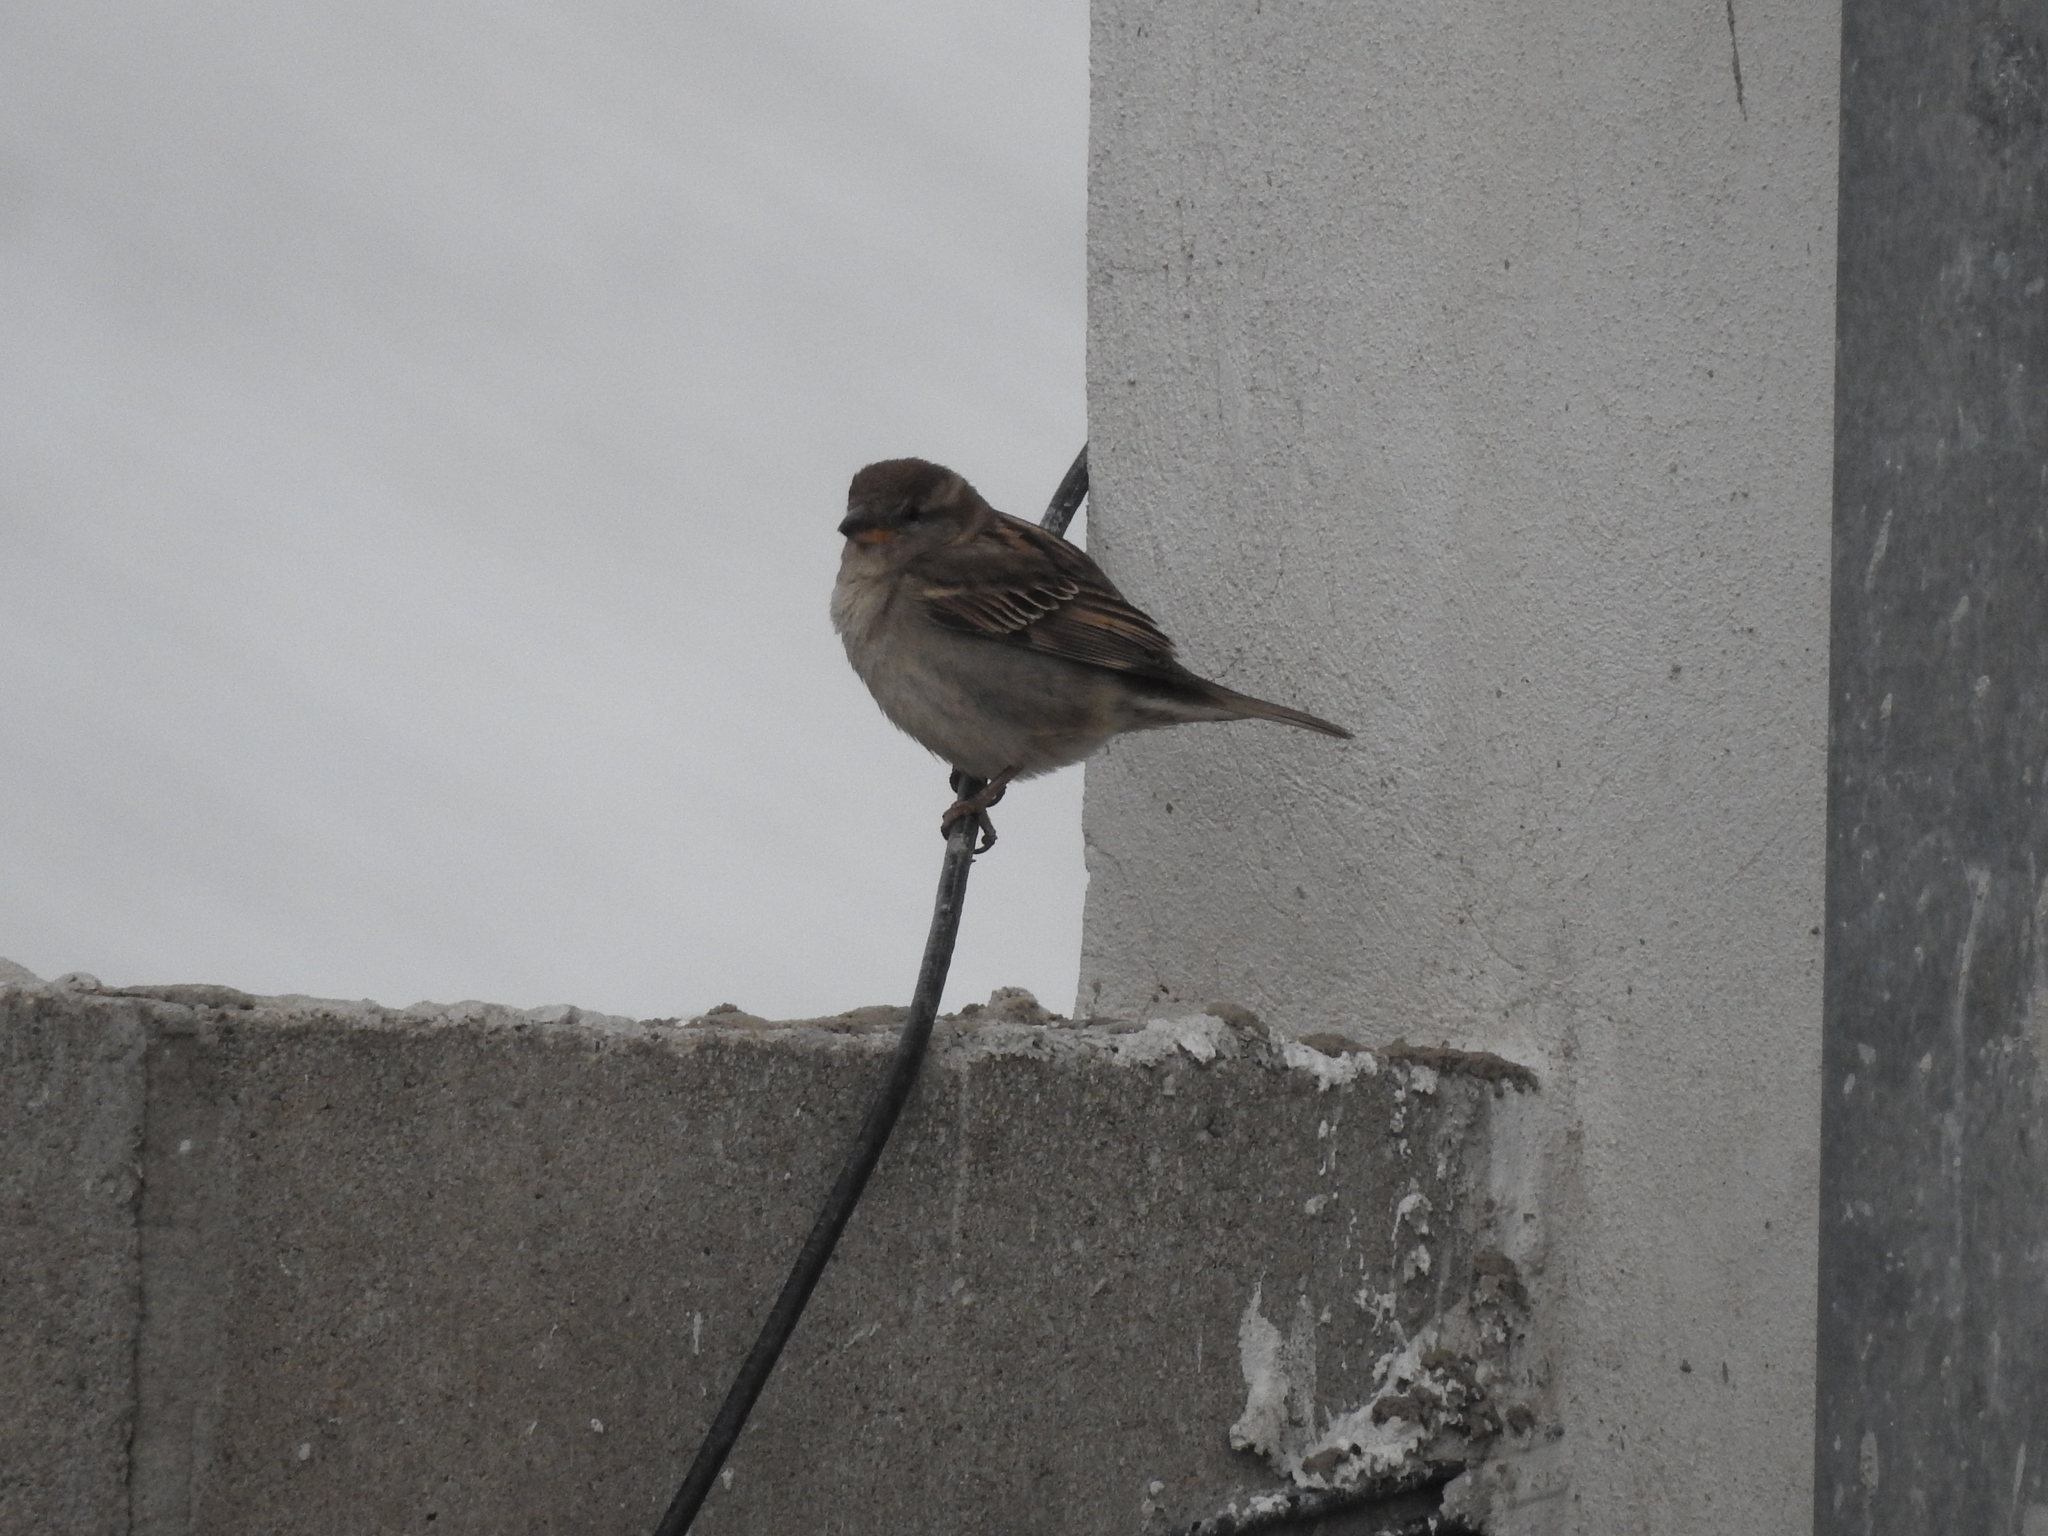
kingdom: Animalia
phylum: Chordata
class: Aves
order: Passeriformes
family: Passeridae
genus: Passer
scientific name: Passer domesticus
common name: House sparrow
